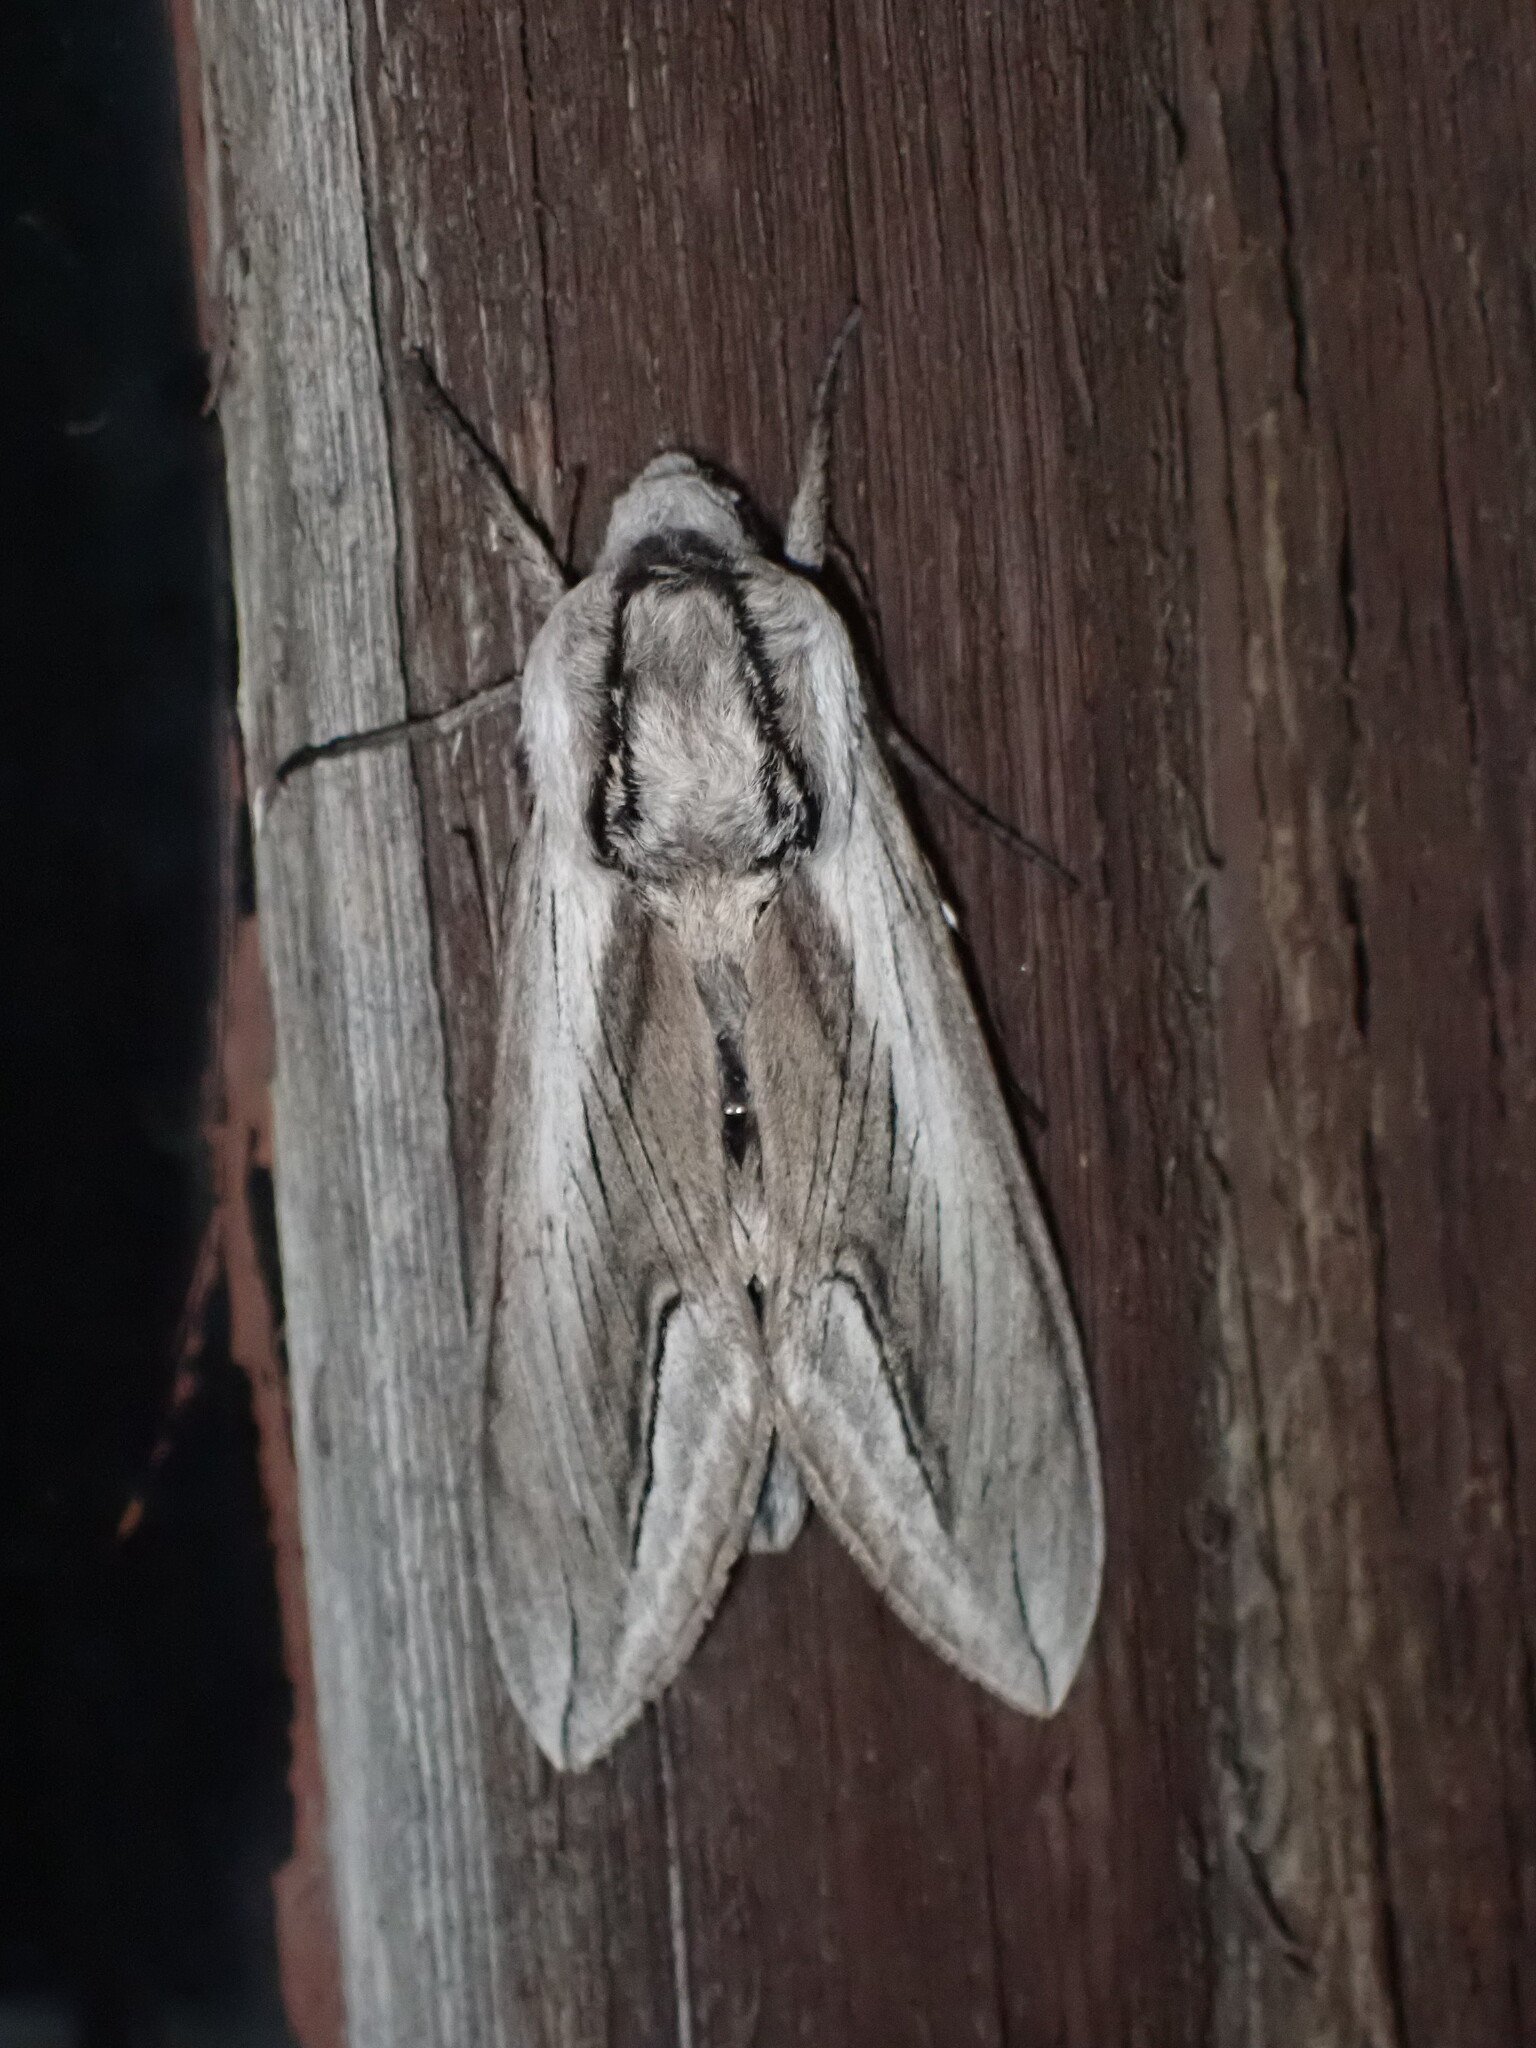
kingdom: Animalia
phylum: Arthropoda
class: Insecta
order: Lepidoptera
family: Sphingidae
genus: Sphinx
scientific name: Sphinx vashti
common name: Snowberry sphinx
